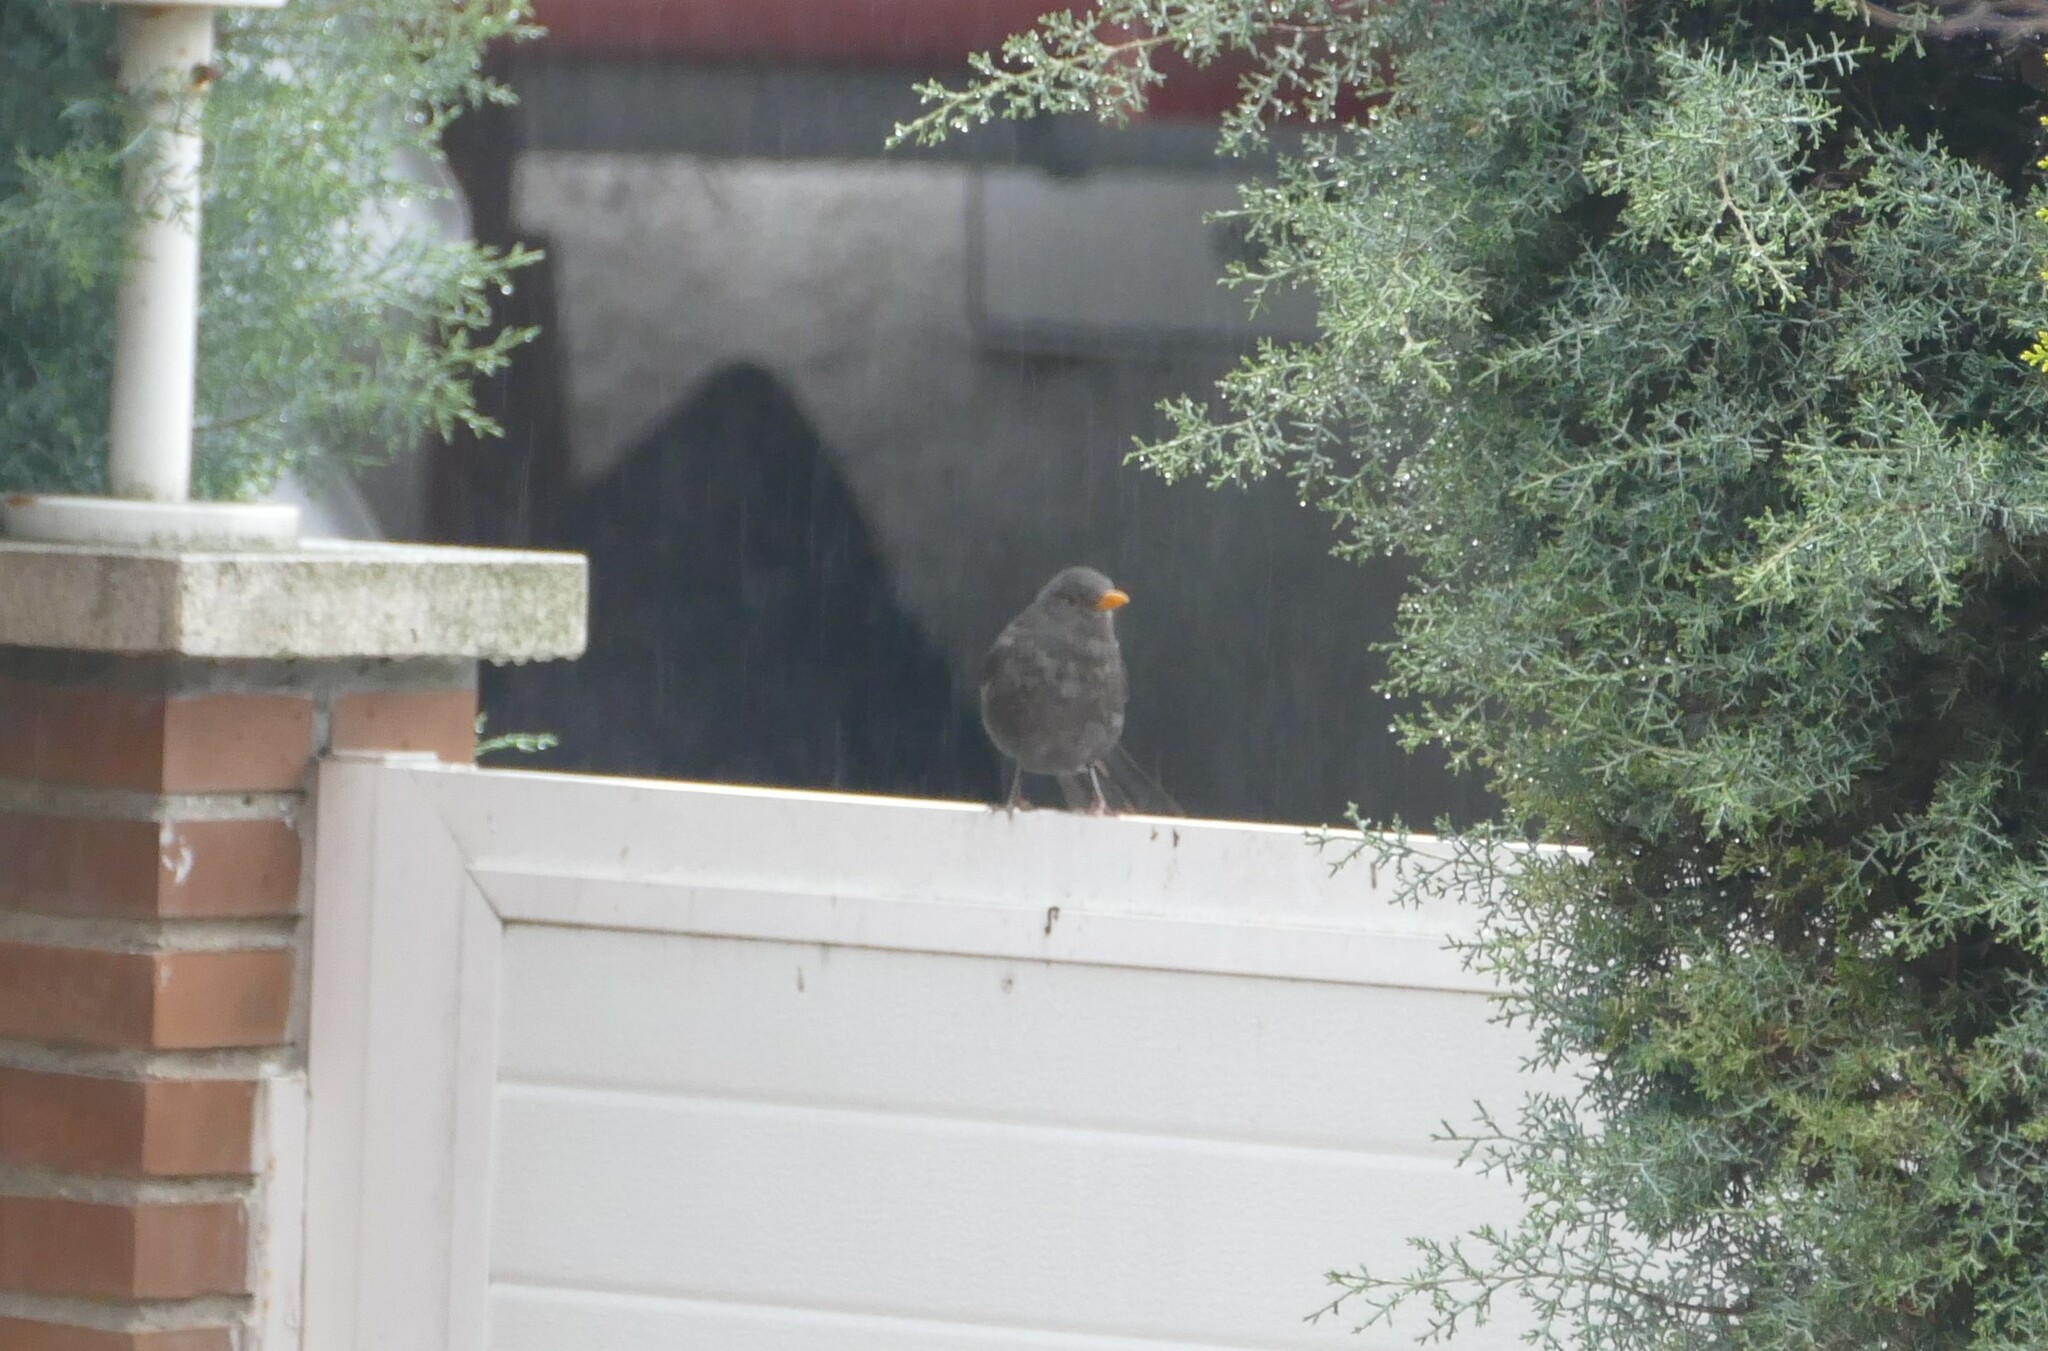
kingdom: Animalia
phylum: Chordata
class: Aves
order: Passeriformes
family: Turdidae
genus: Turdus
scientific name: Turdus merula
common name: Common blackbird
